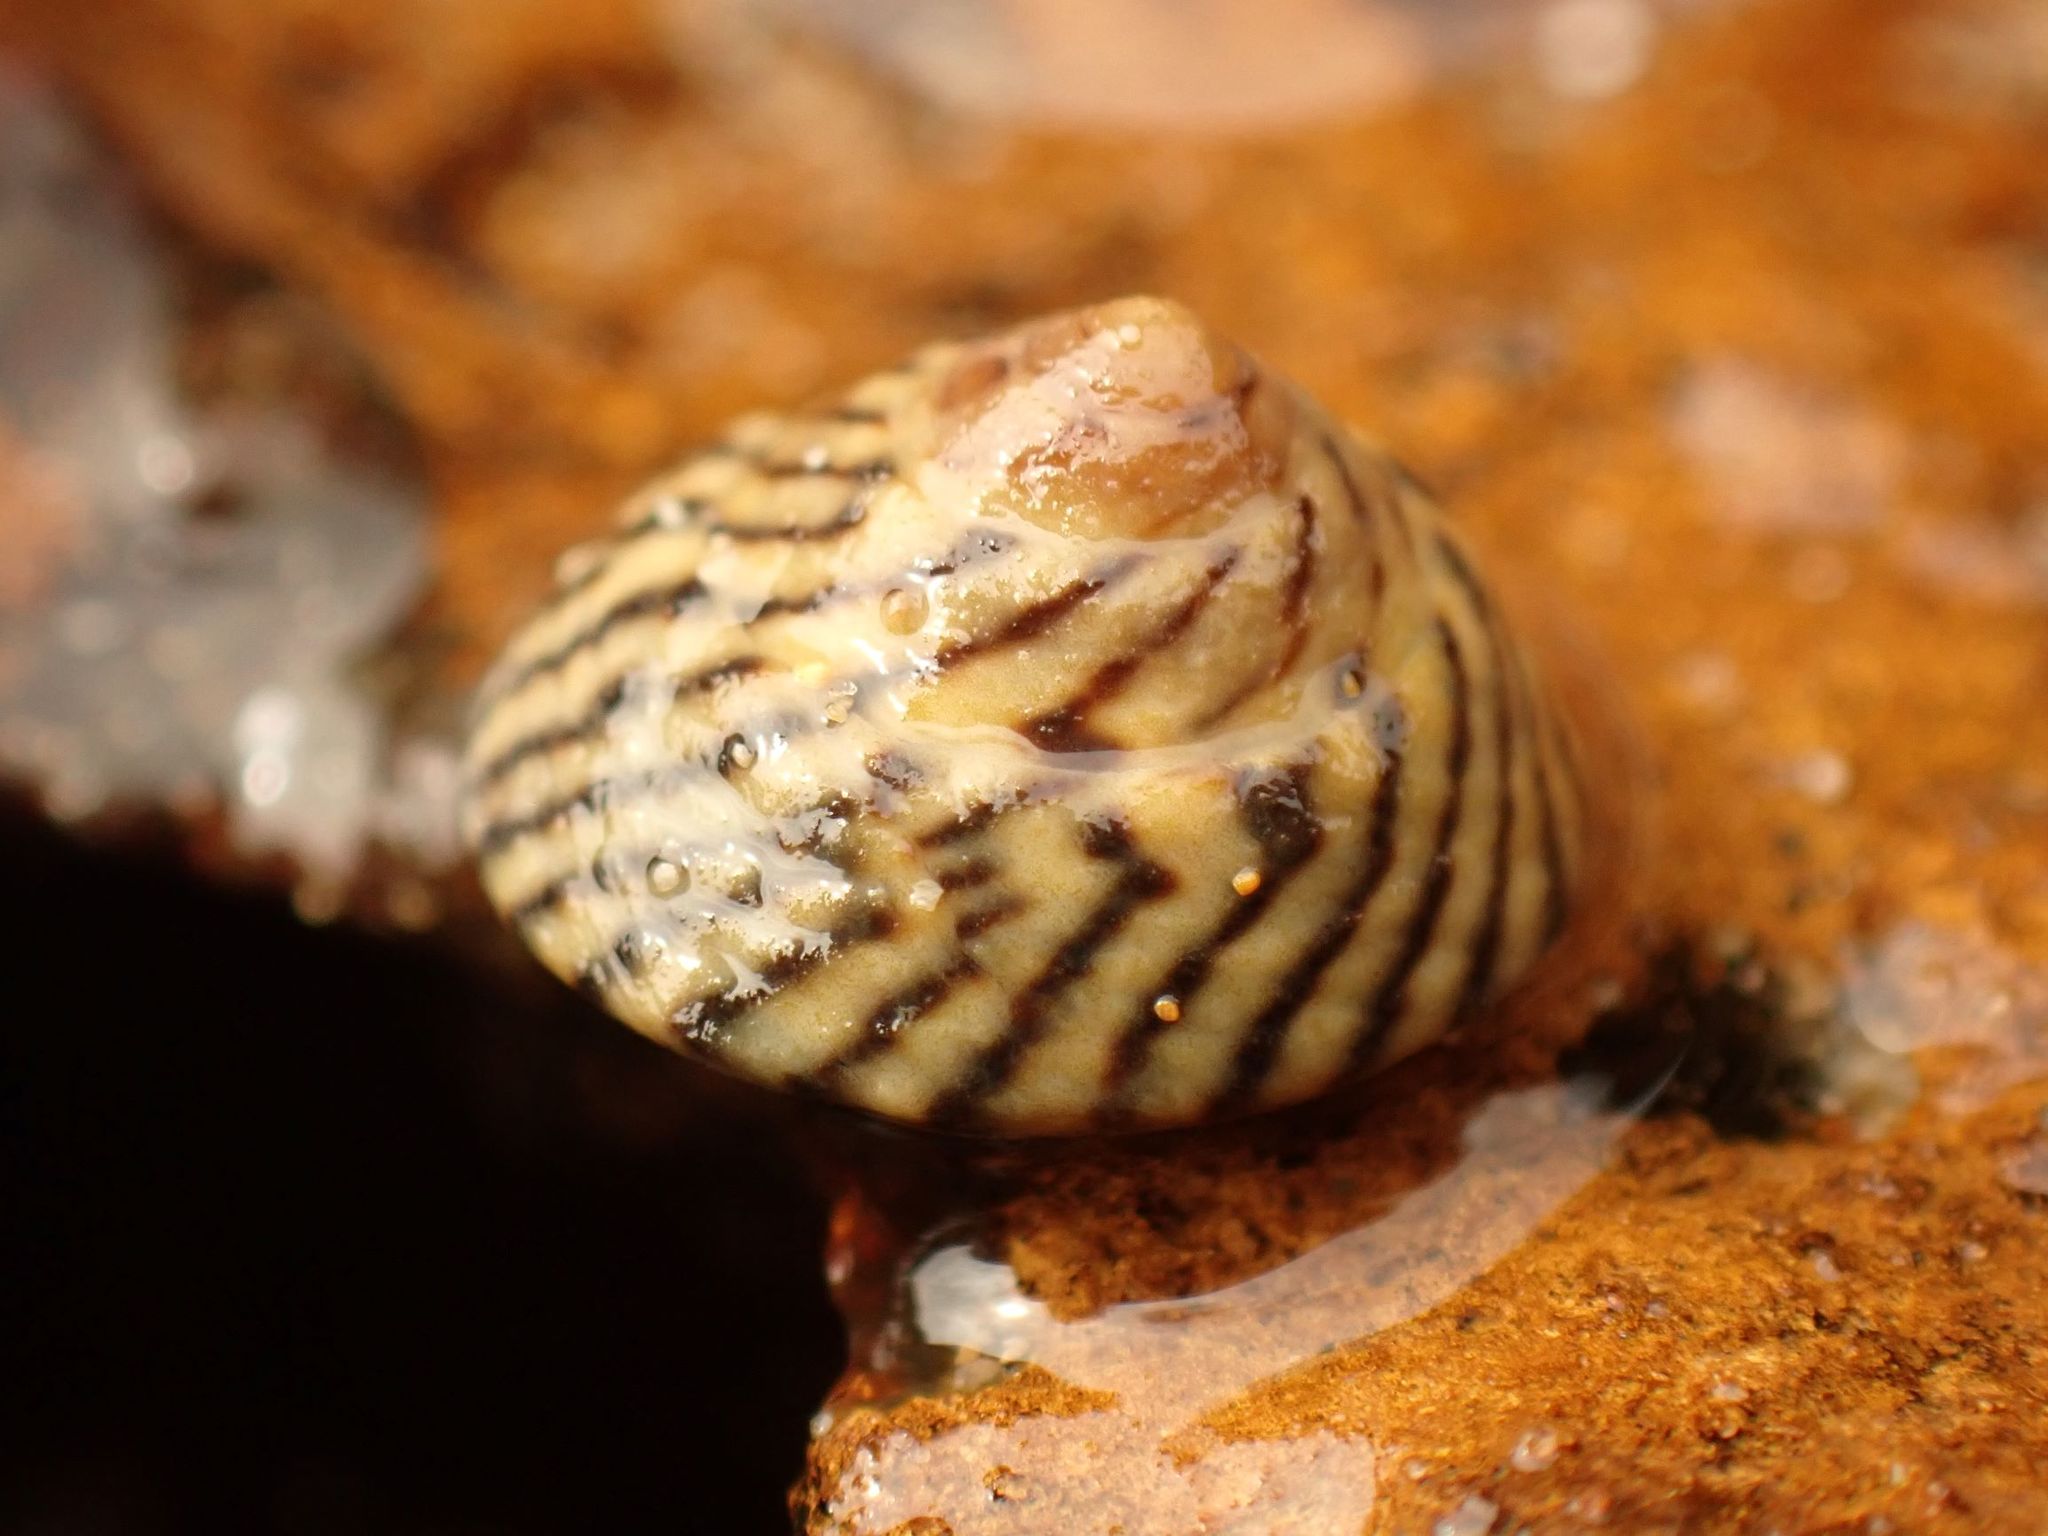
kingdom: Animalia
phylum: Mollusca
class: Gastropoda
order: Littorinimorpha
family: Littorinidae
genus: Bembicium
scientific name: Bembicium nanum
